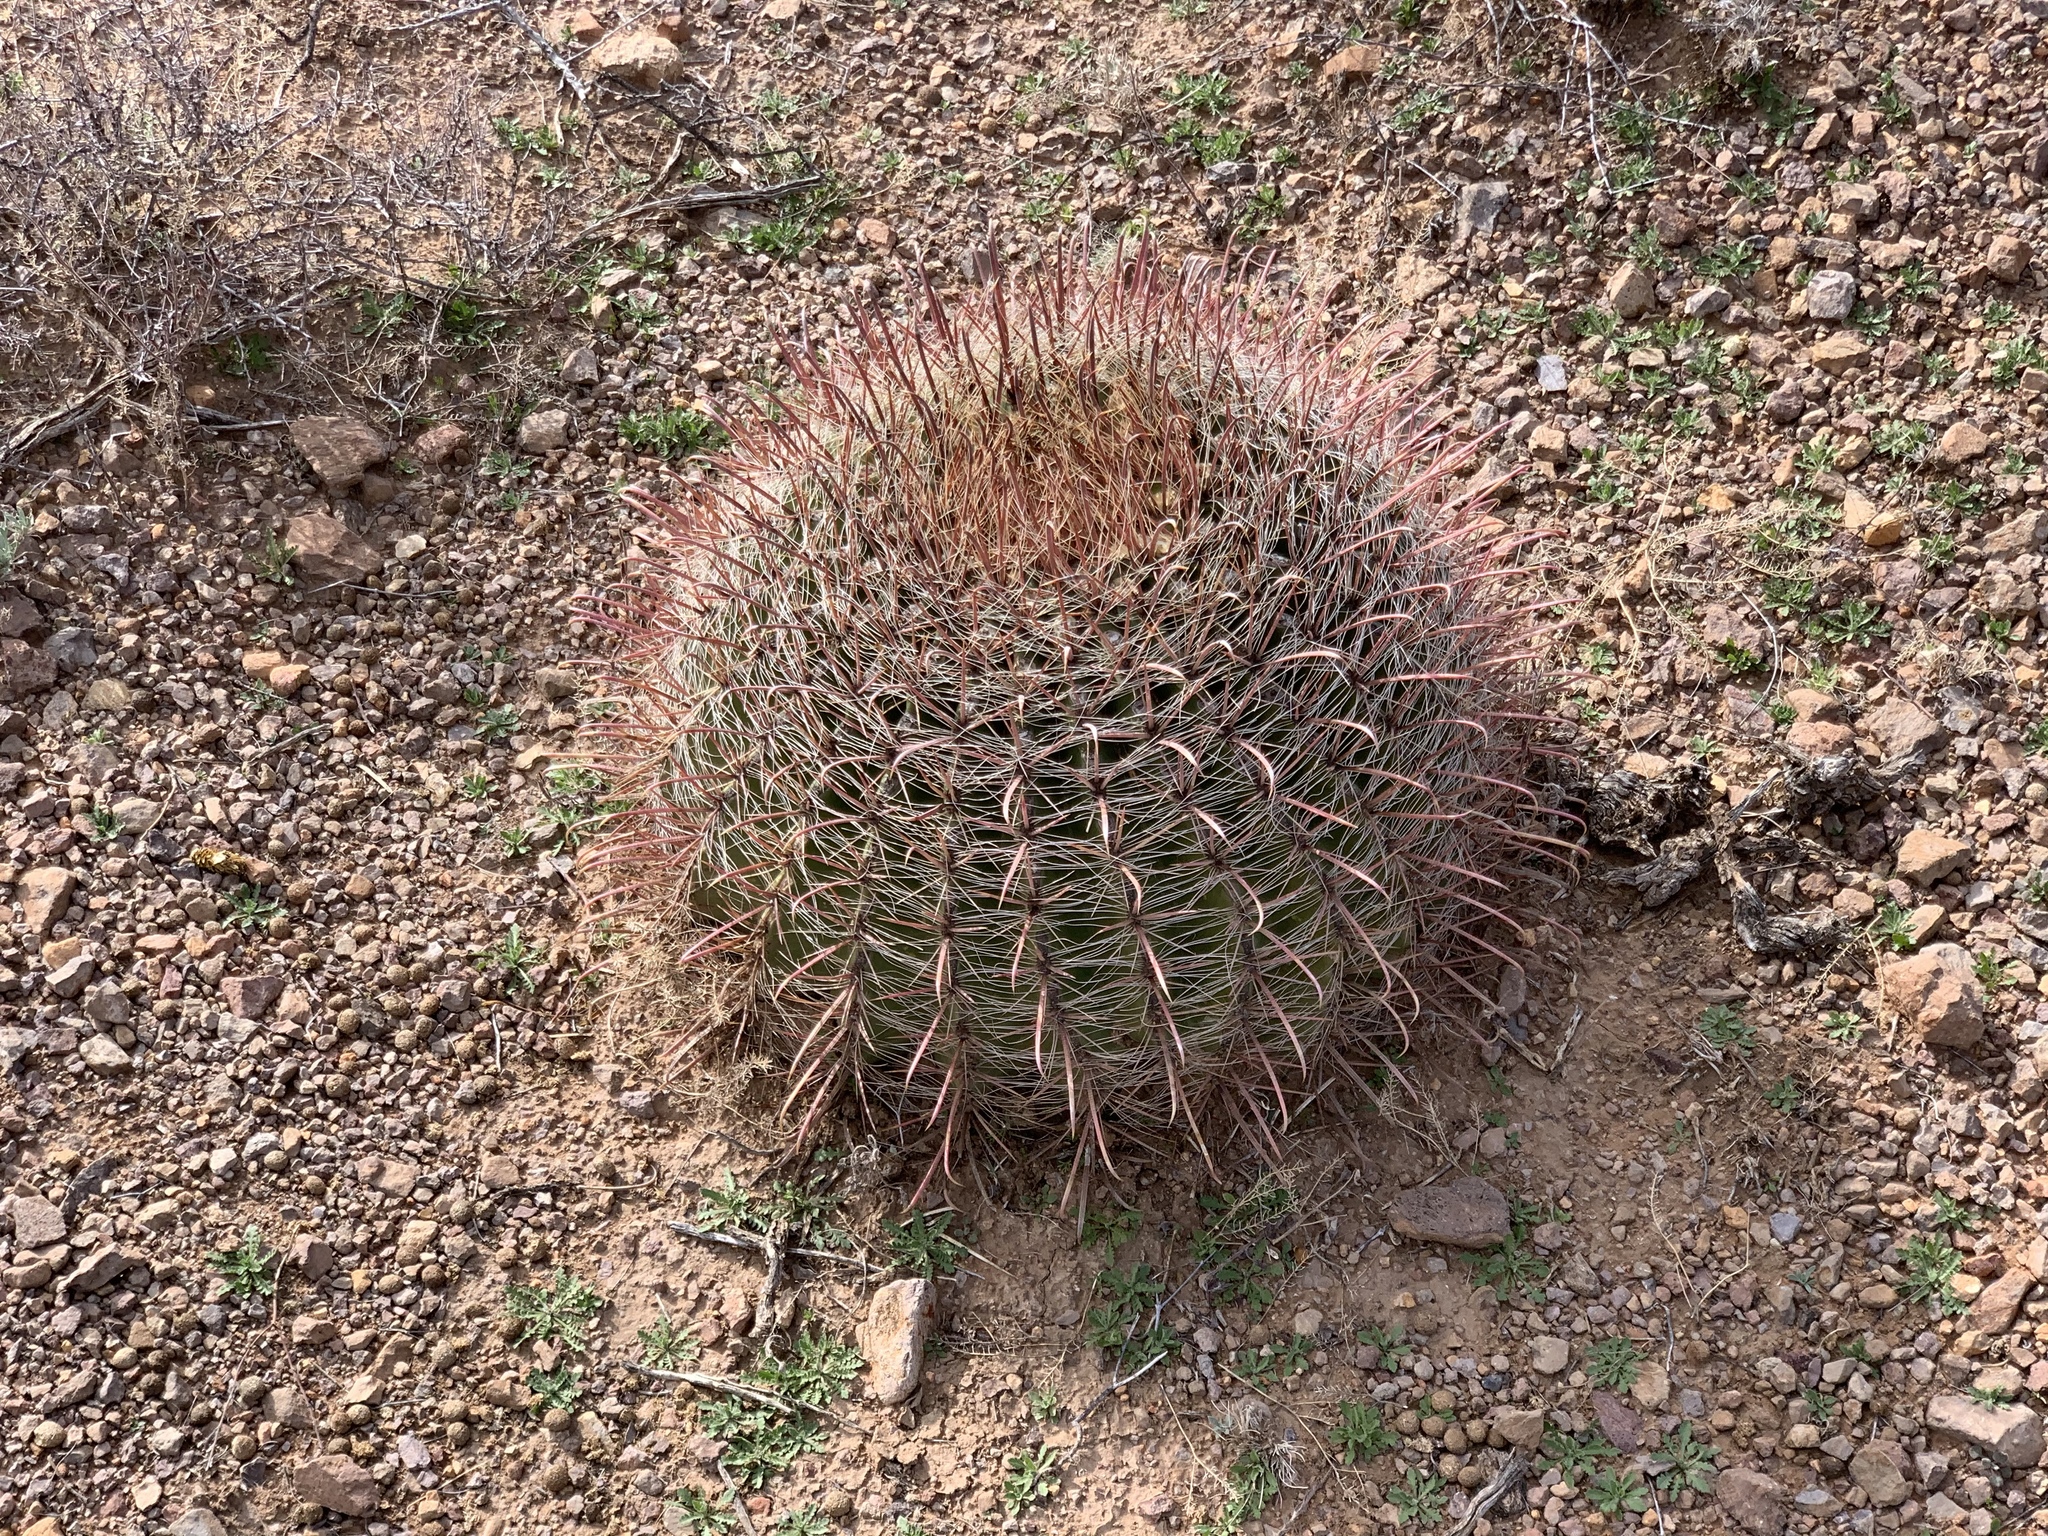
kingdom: Plantae
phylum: Tracheophyta
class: Magnoliopsida
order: Caryophyllales
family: Cactaceae
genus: Ferocactus
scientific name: Ferocactus wislizeni
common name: Candy barrel cactus
